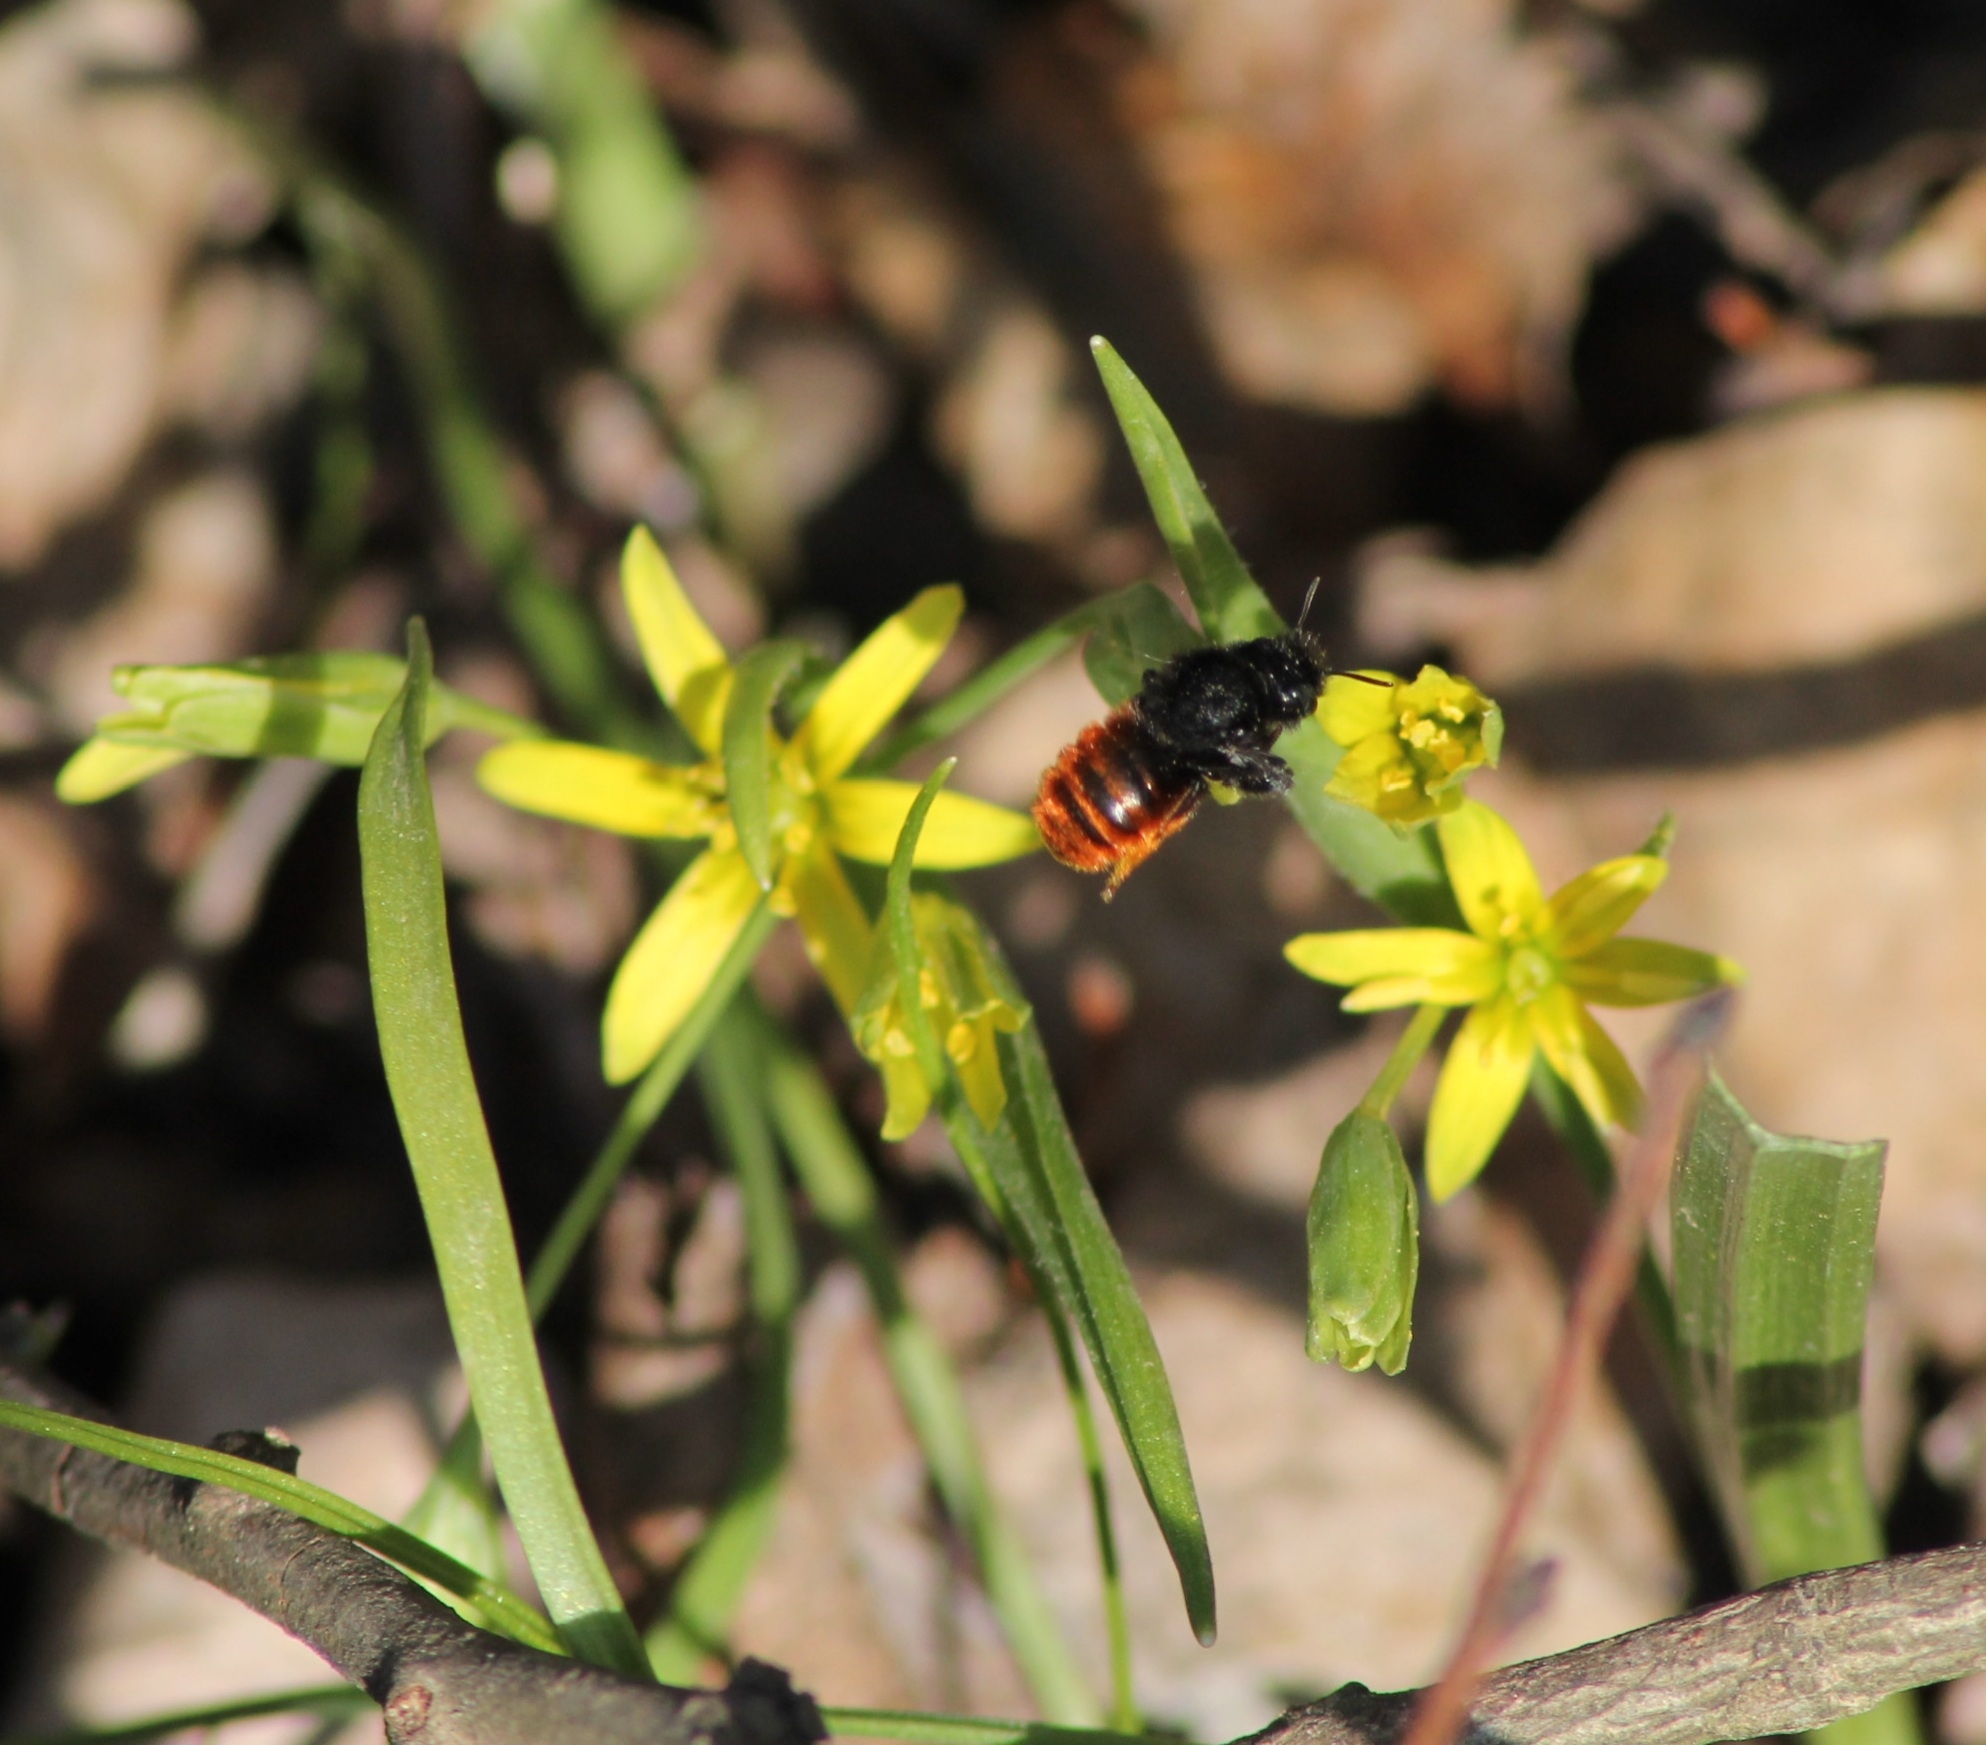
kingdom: Animalia
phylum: Arthropoda
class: Insecta
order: Hymenoptera
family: Megachilidae
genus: Osmia
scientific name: Osmia bicolor
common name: Red-tailed mason bee
